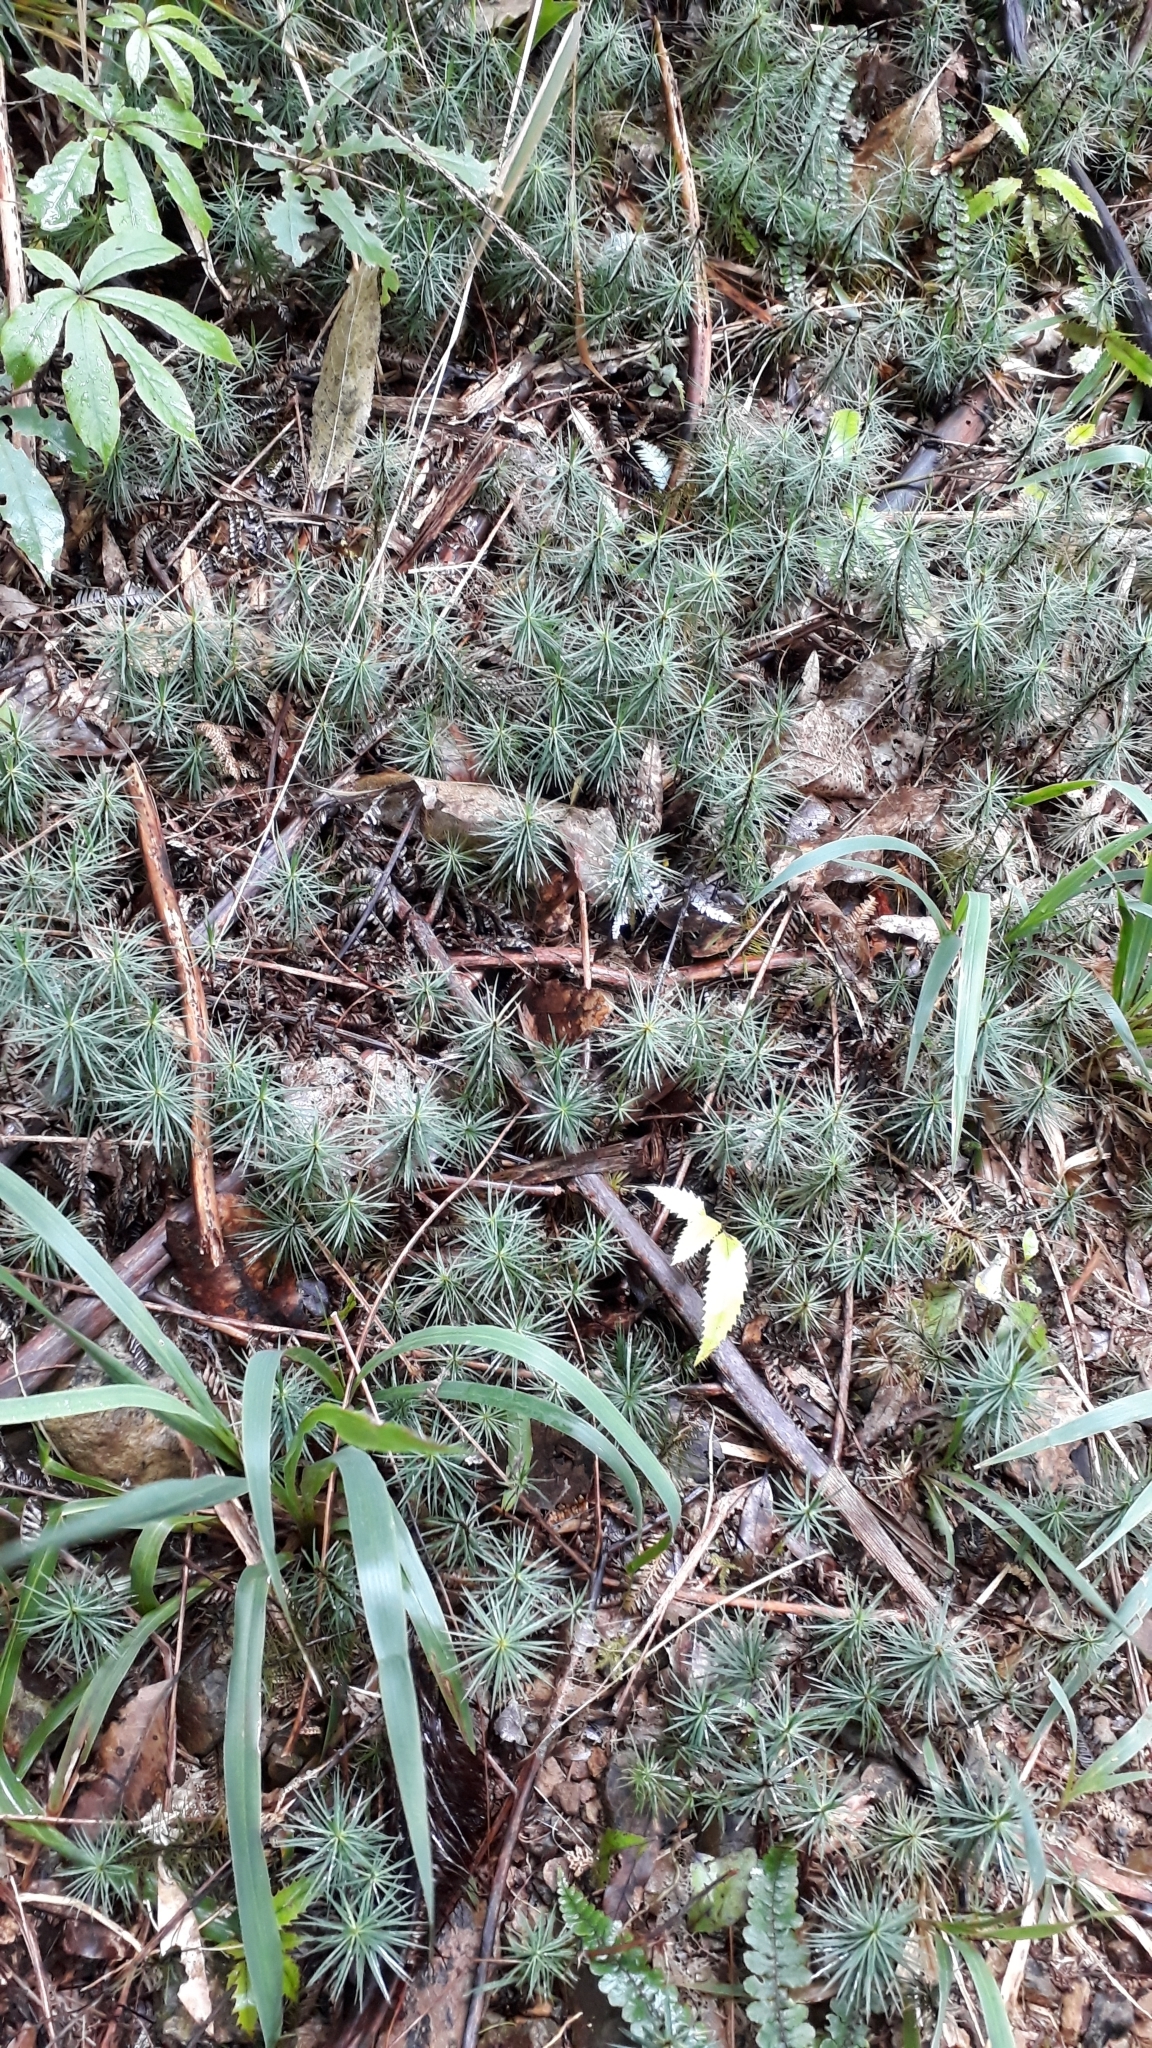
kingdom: Plantae
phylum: Bryophyta
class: Polytrichopsida
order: Polytrichales
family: Polytrichaceae
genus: Dawsonia
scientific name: Dawsonia superba
